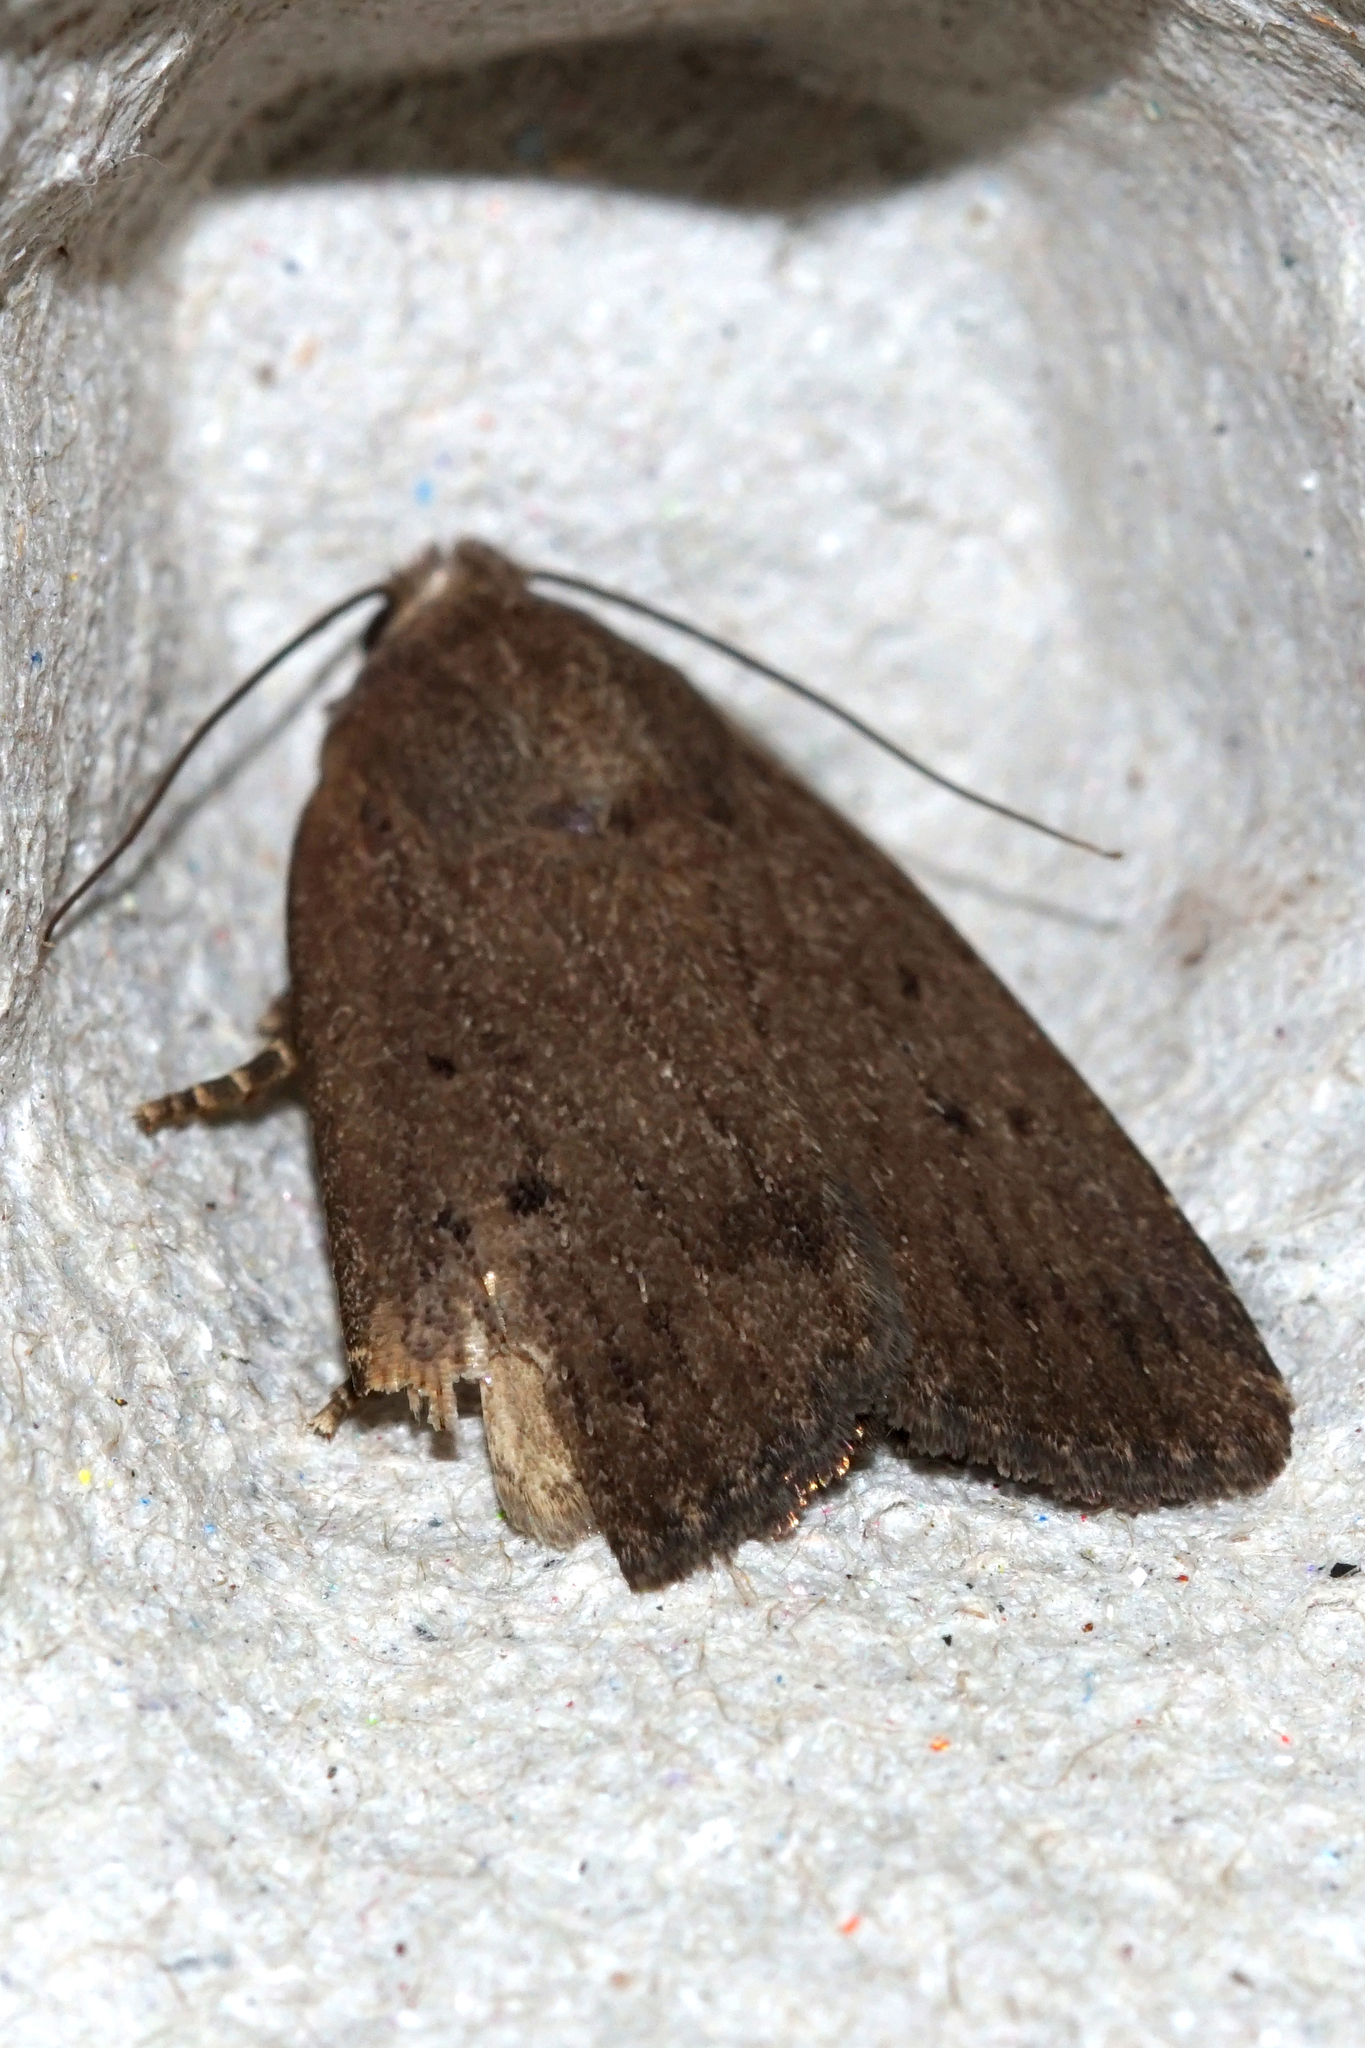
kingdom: Animalia
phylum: Arthropoda
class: Insecta
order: Lepidoptera
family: Noctuidae
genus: Amphipyra
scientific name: Amphipyra tragopoginis
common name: Mouse moth
